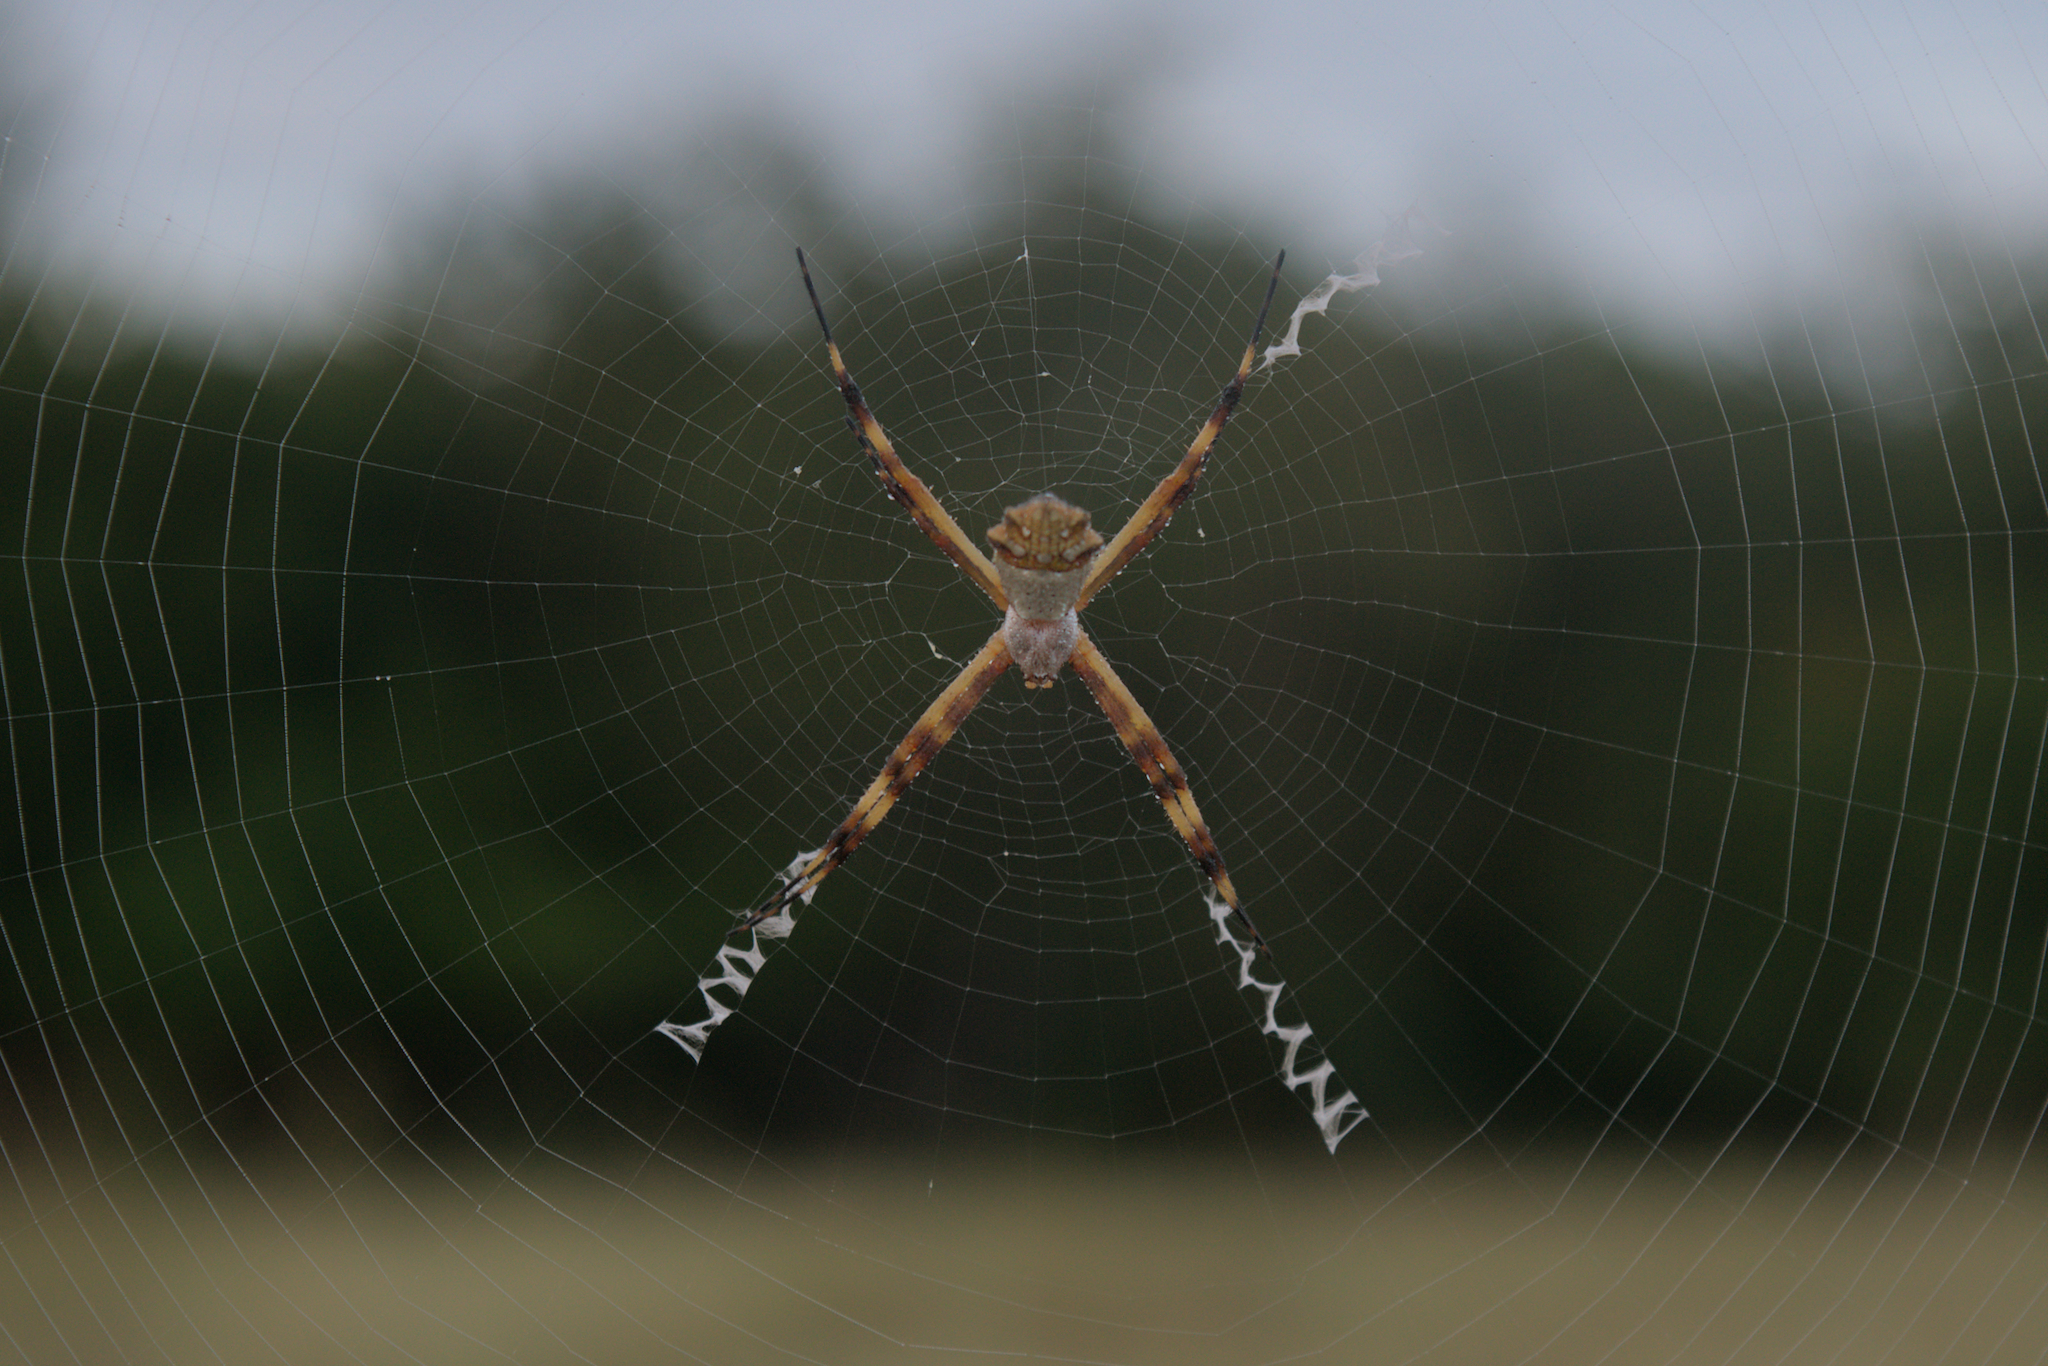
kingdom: Animalia
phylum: Arthropoda
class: Arachnida
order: Araneae
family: Araneidae
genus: Argiope
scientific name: Argiope argentata
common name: Orb weavers
